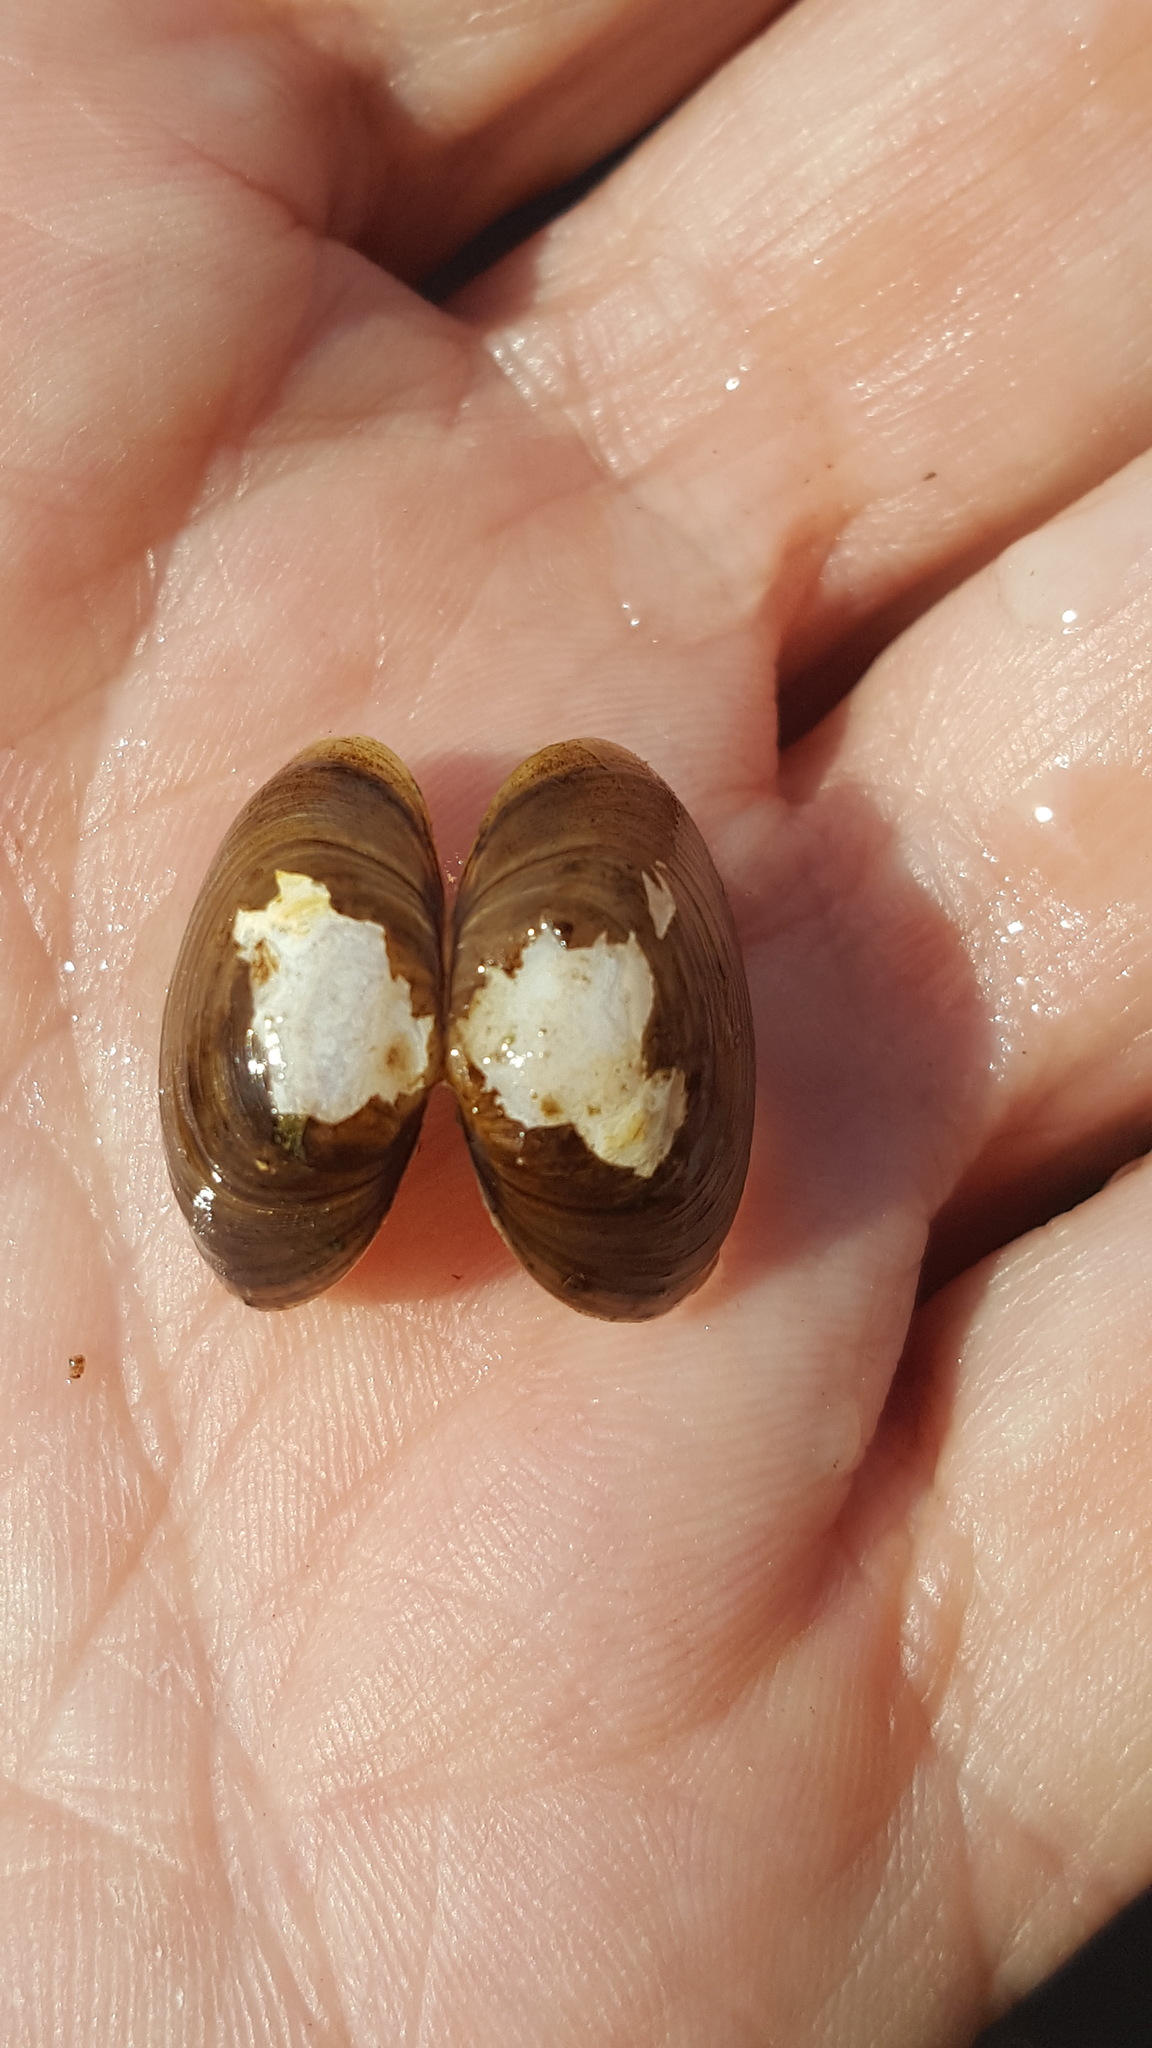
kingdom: Animalia
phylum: Mollusca
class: Bivalvia
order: Sphaeriida
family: Sphaeriidae
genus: Sphaerium
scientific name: Sphaerium simile
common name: Grooved fingernailclam
